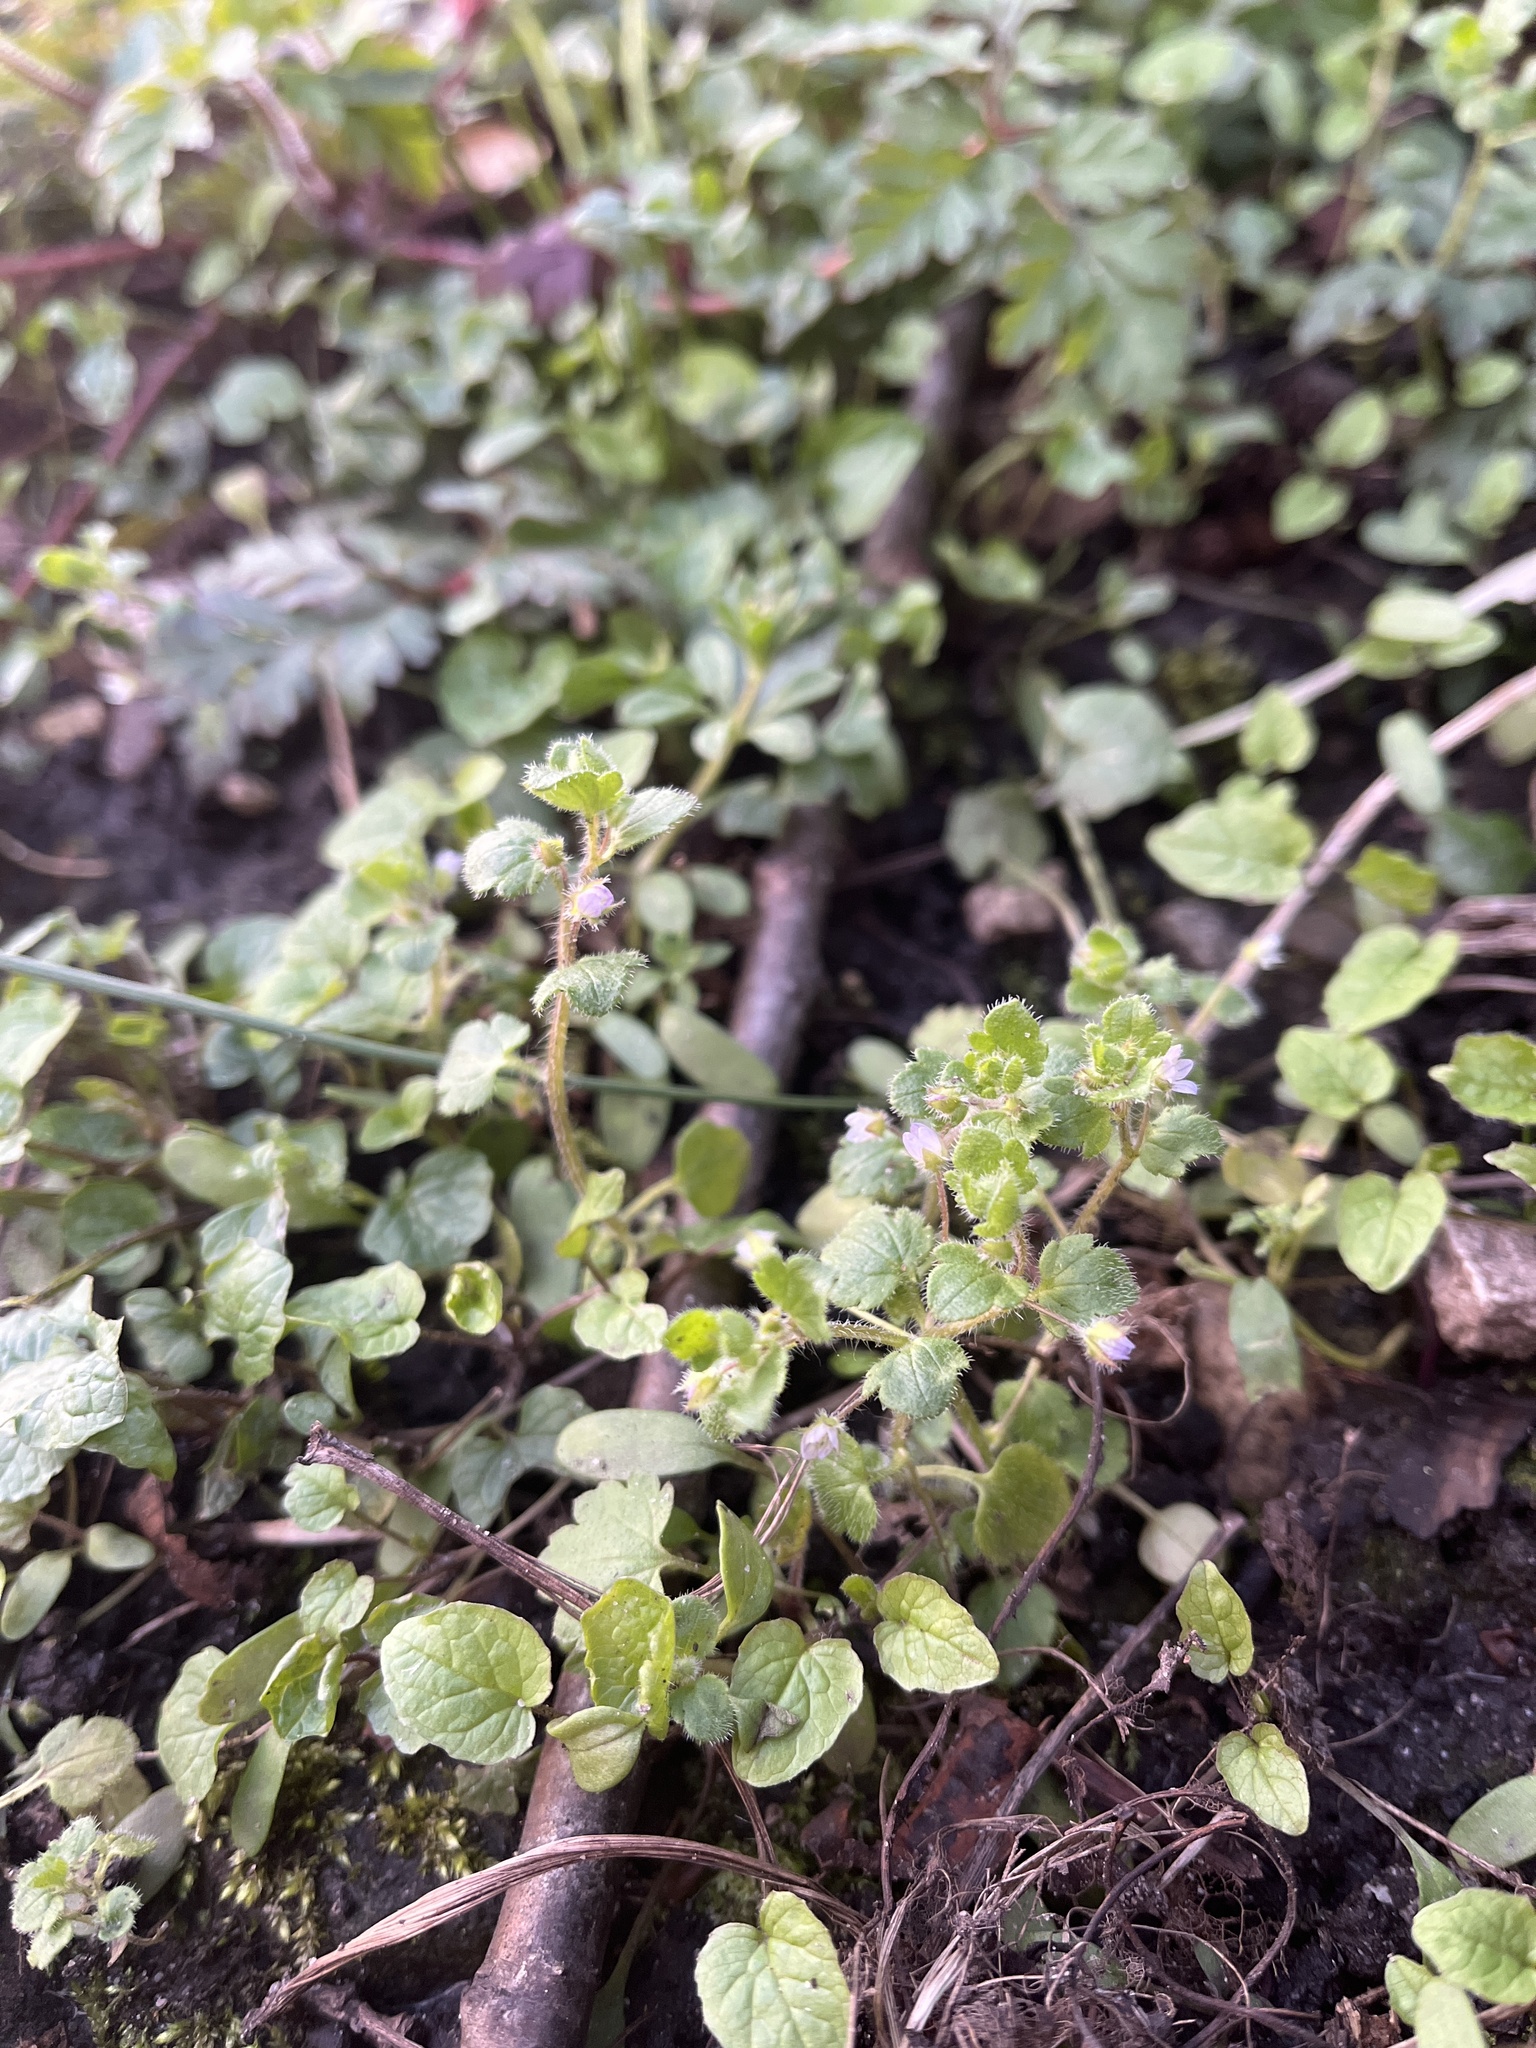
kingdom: Plantae
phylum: Tracheophyta
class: Magnoliopsida
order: Lamiales
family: Plantaginaceae
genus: Veronica
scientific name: Veronica sublobata
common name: False ivy-leaved speedwell
